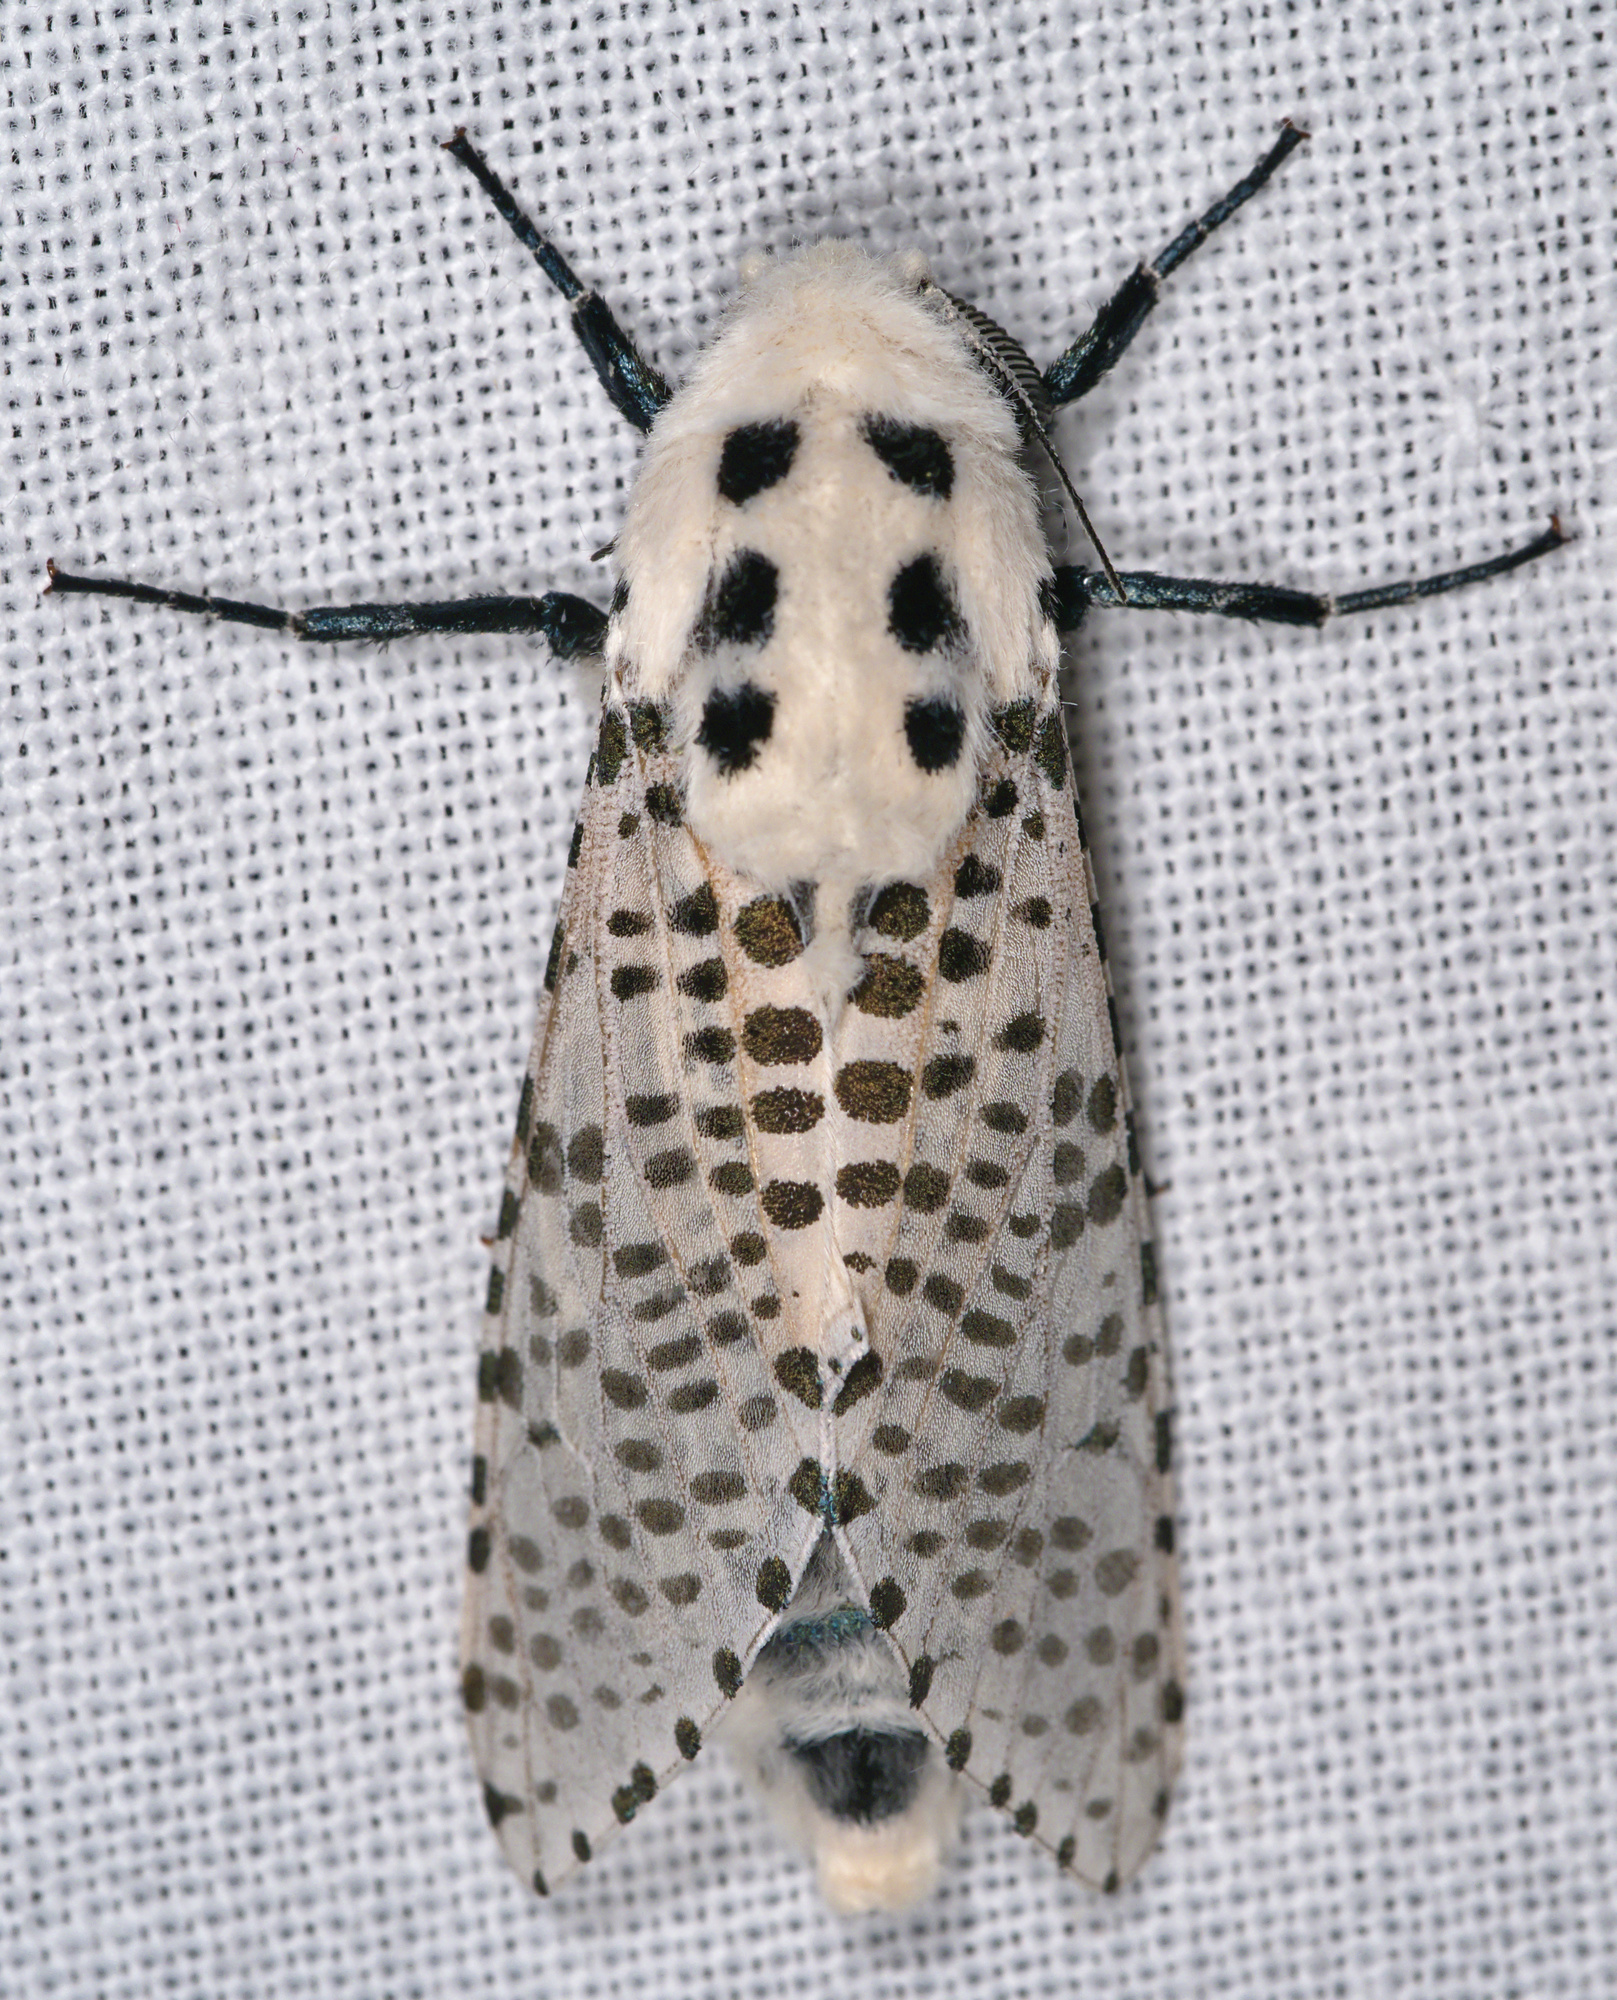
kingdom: Animalia
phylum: Arthropoda
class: Insecta
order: Lepidoptera
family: Cossidae
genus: Zeuzera
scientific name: Zeuzera pyrina
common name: Leopard moth
